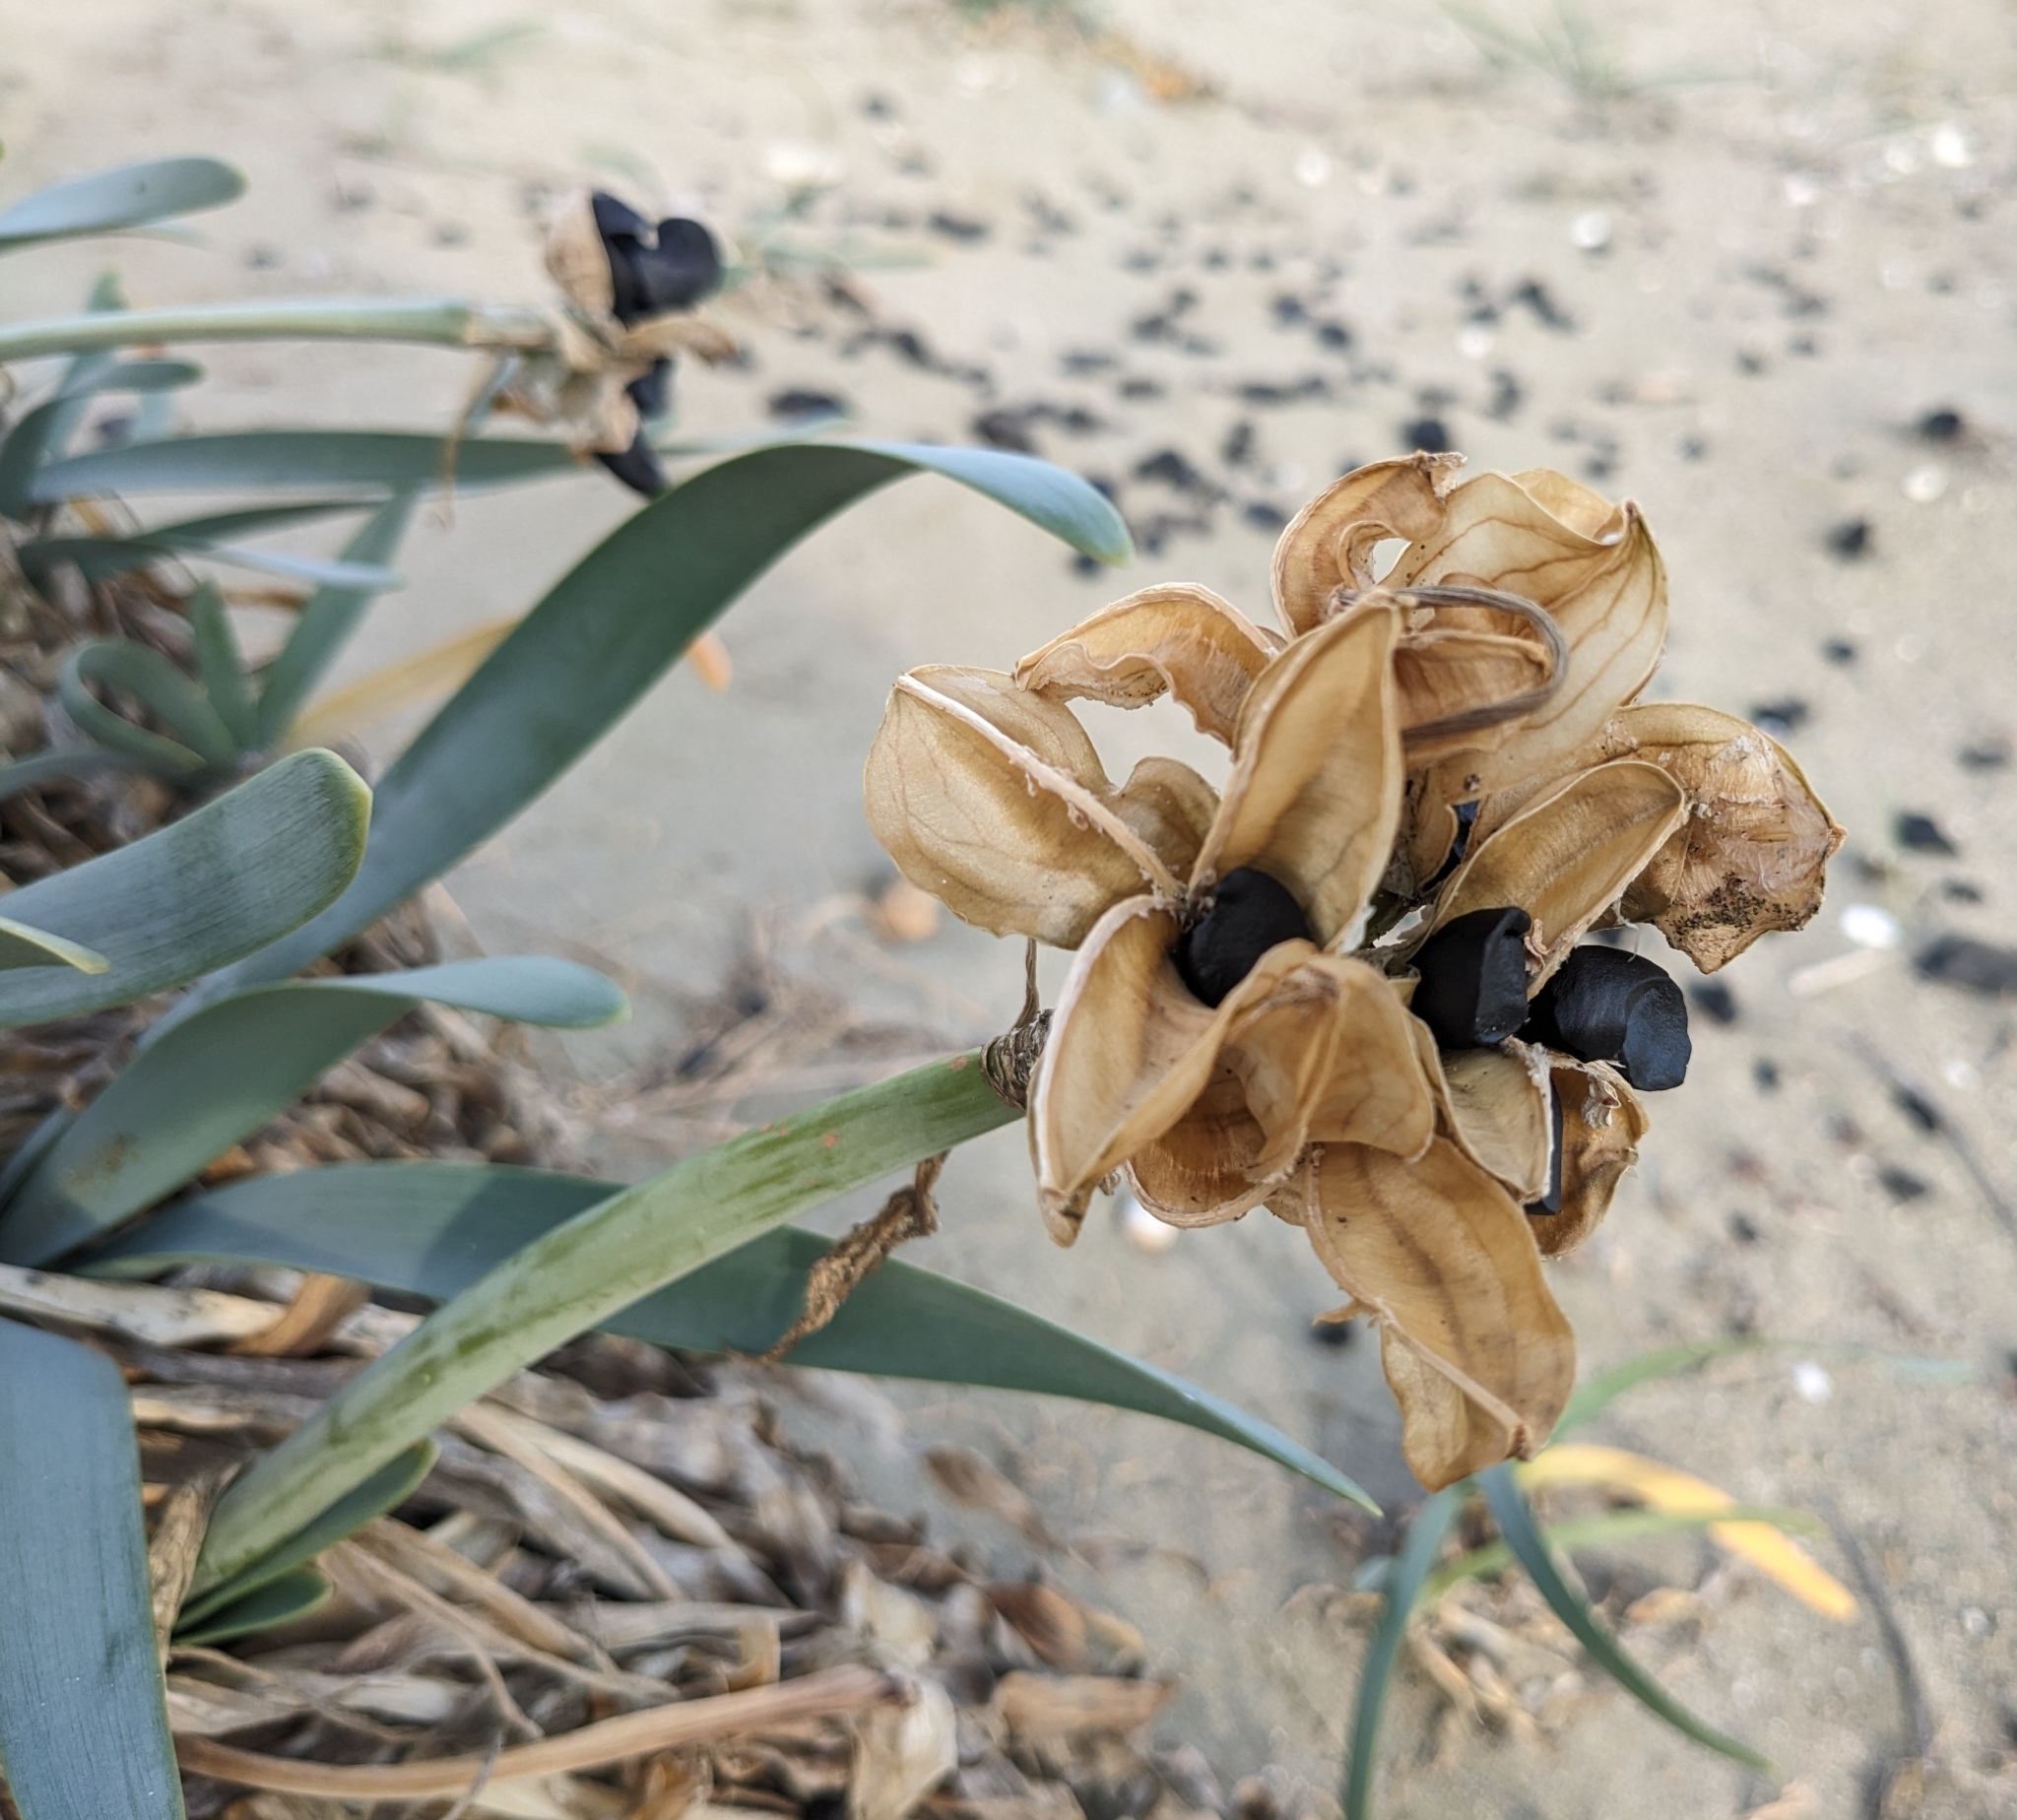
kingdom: Plantae
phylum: Tracheophyta
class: Liliopsida
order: Asparagales
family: Amaryllidaceae
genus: Pancratium
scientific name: Pancratium maritimum
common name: Sea-daffodil
